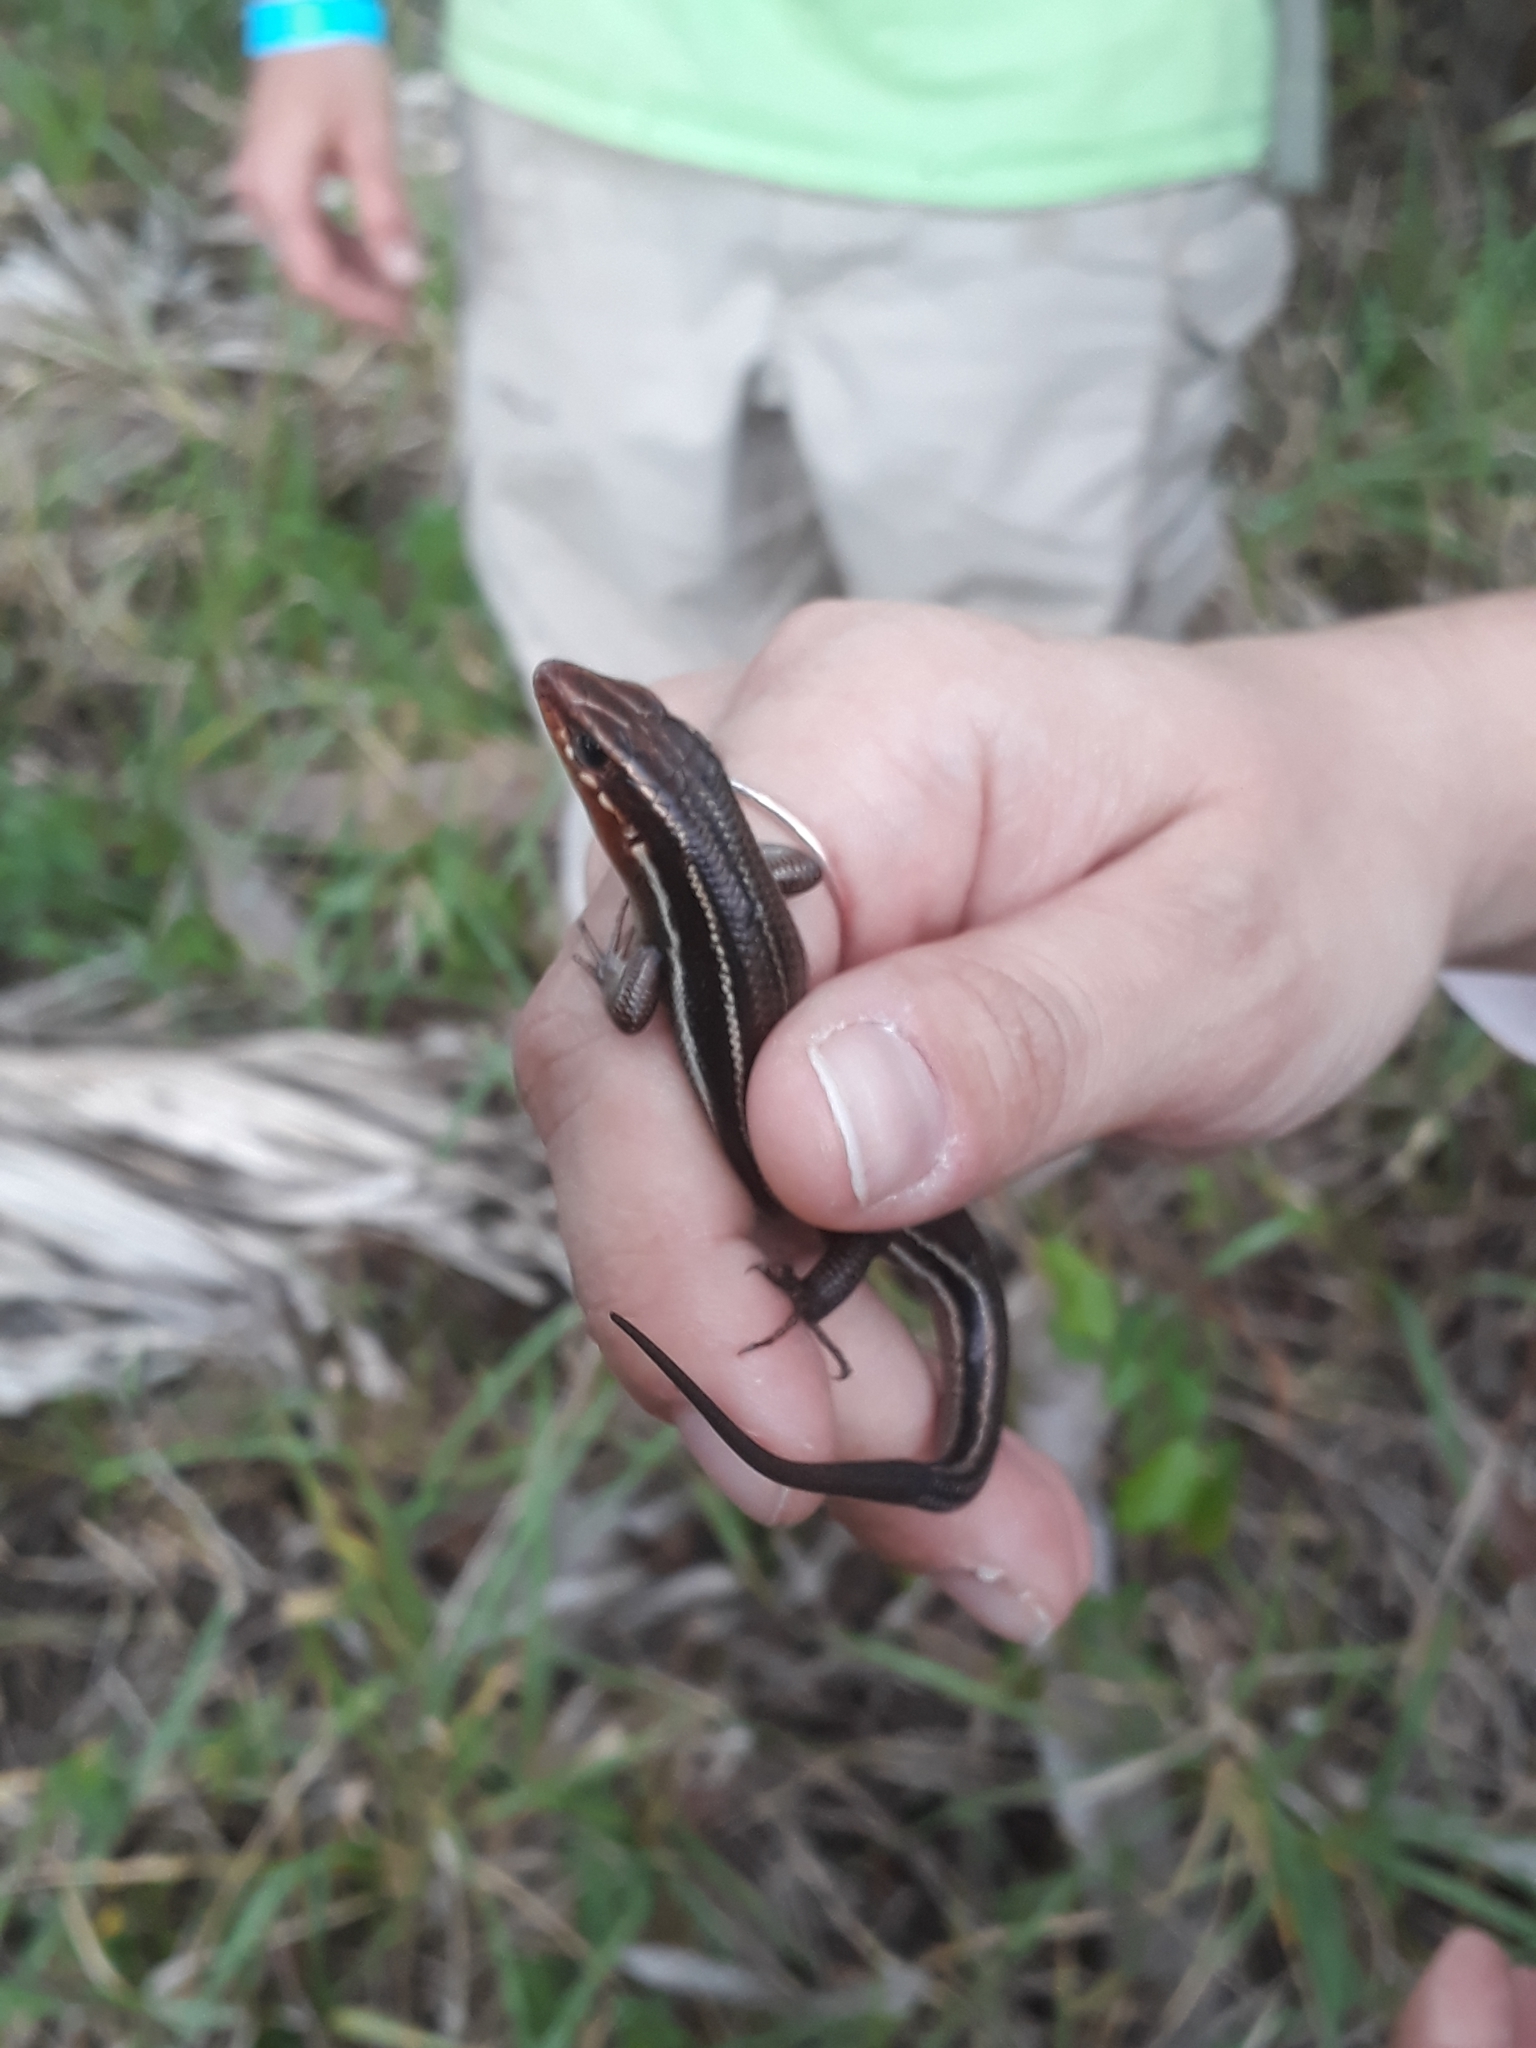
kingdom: Animalia
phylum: Chordata
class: Squamata
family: Scincidae
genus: Plestiodon
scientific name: Plestiodon inexpectatus
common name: Southeastern five-lined skink
